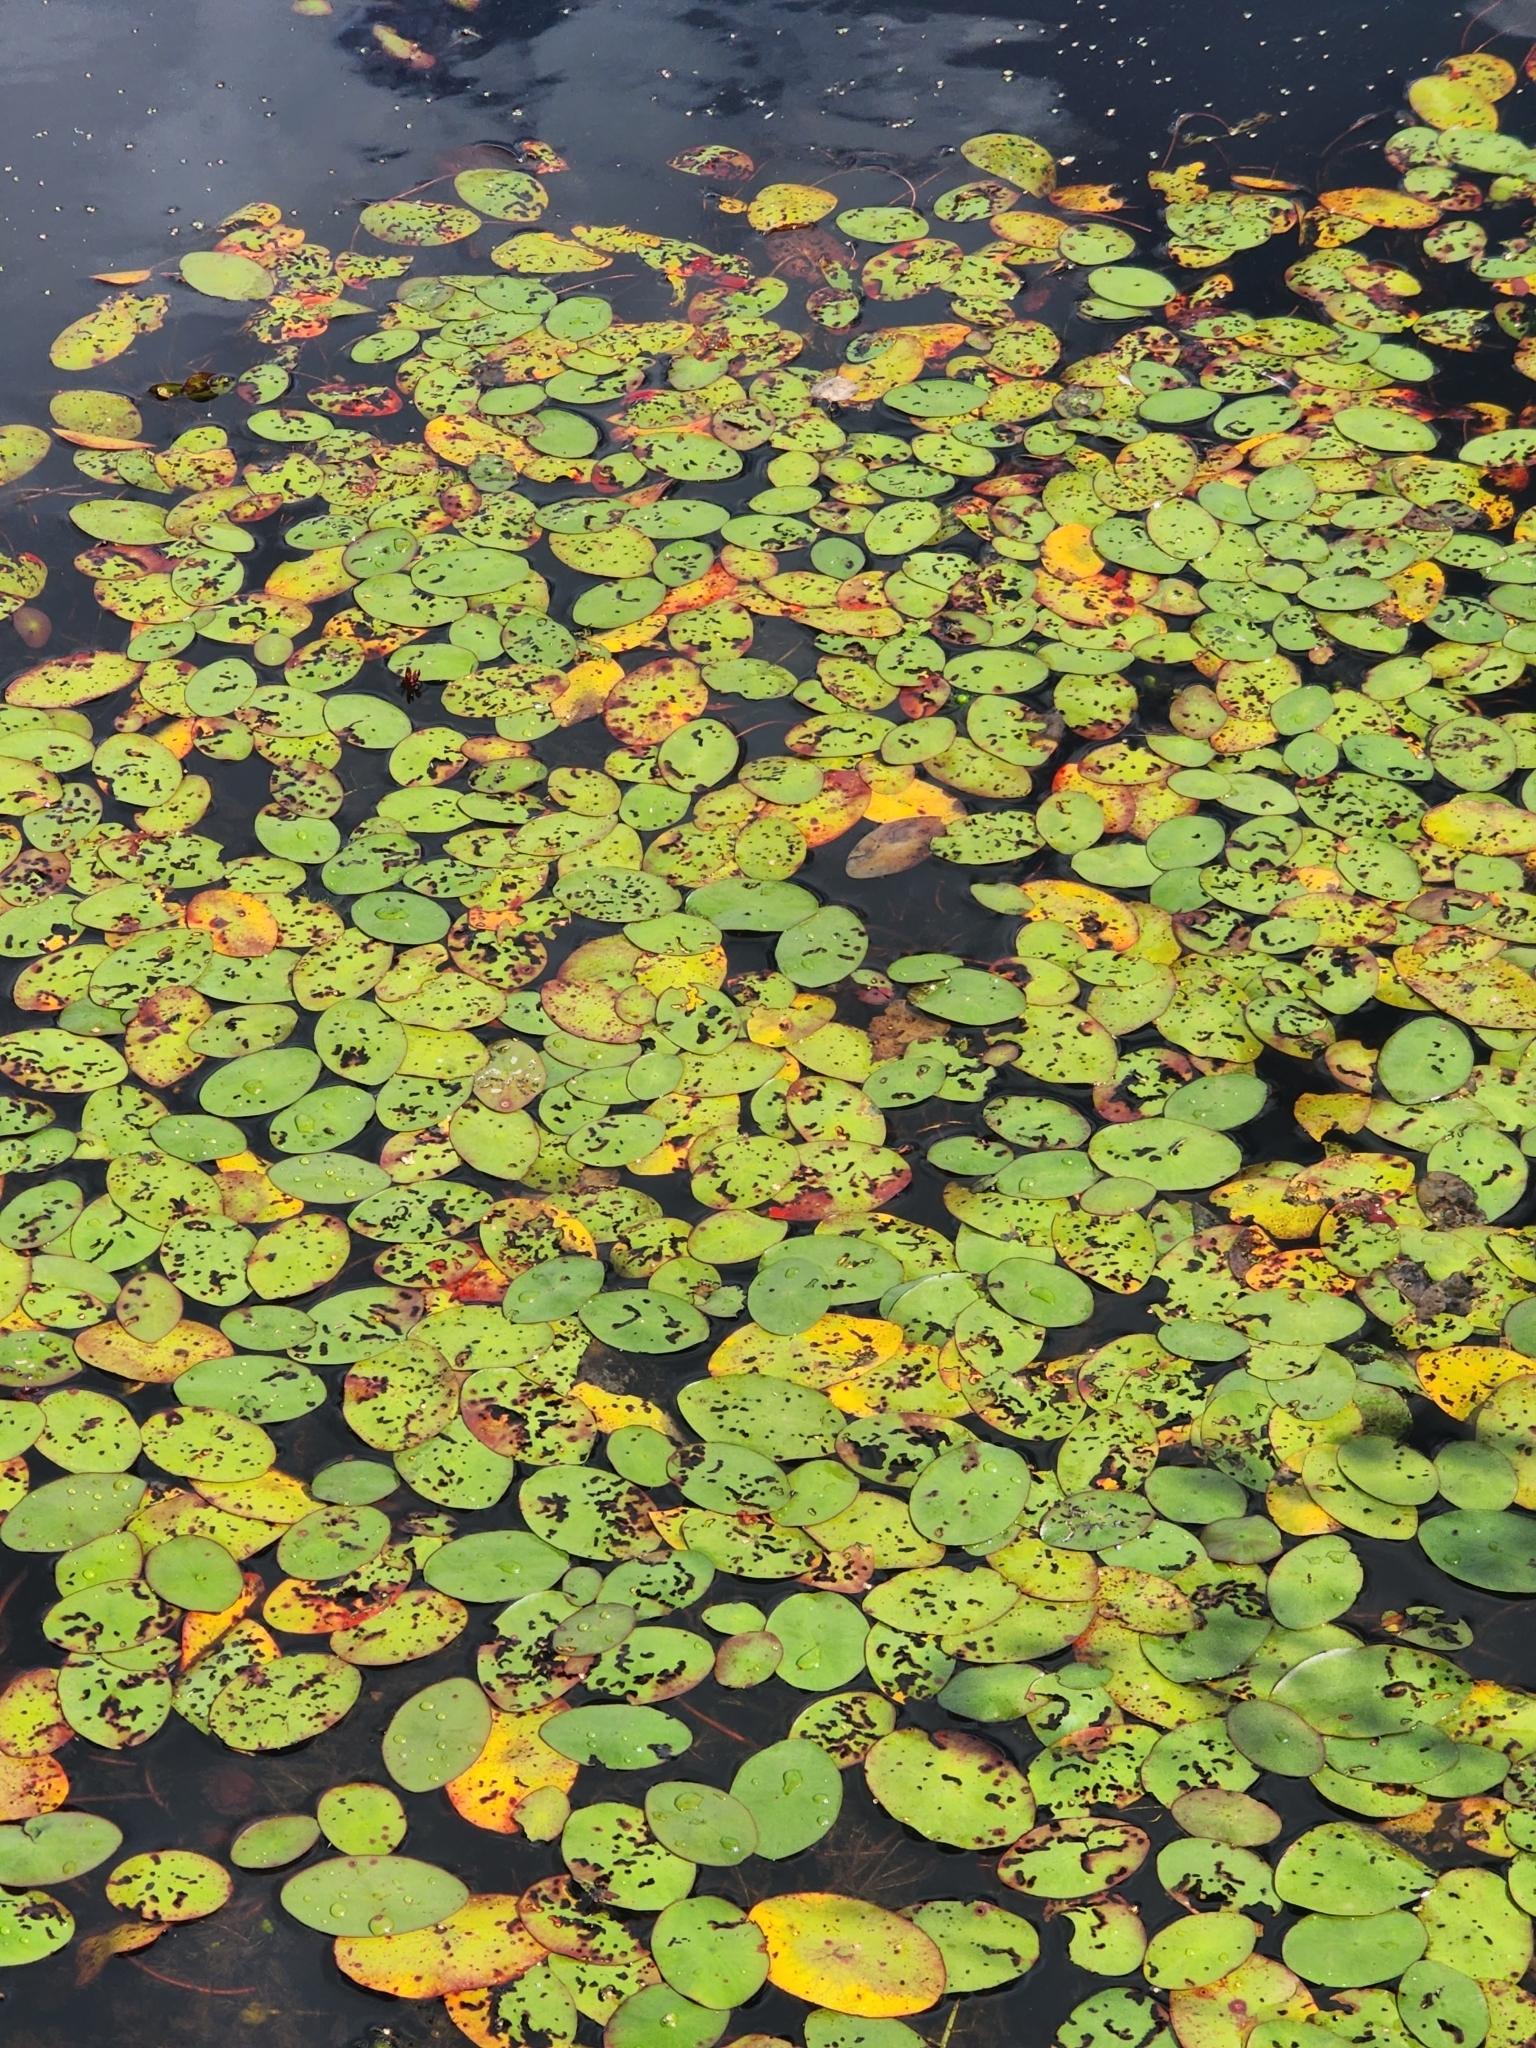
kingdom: Plantae
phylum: Tracheophyta
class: Magnoliopsida
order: Nymphaeales
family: Cabombaceae
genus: Brasenia
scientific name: Brasenia schreberi
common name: Water-shield
